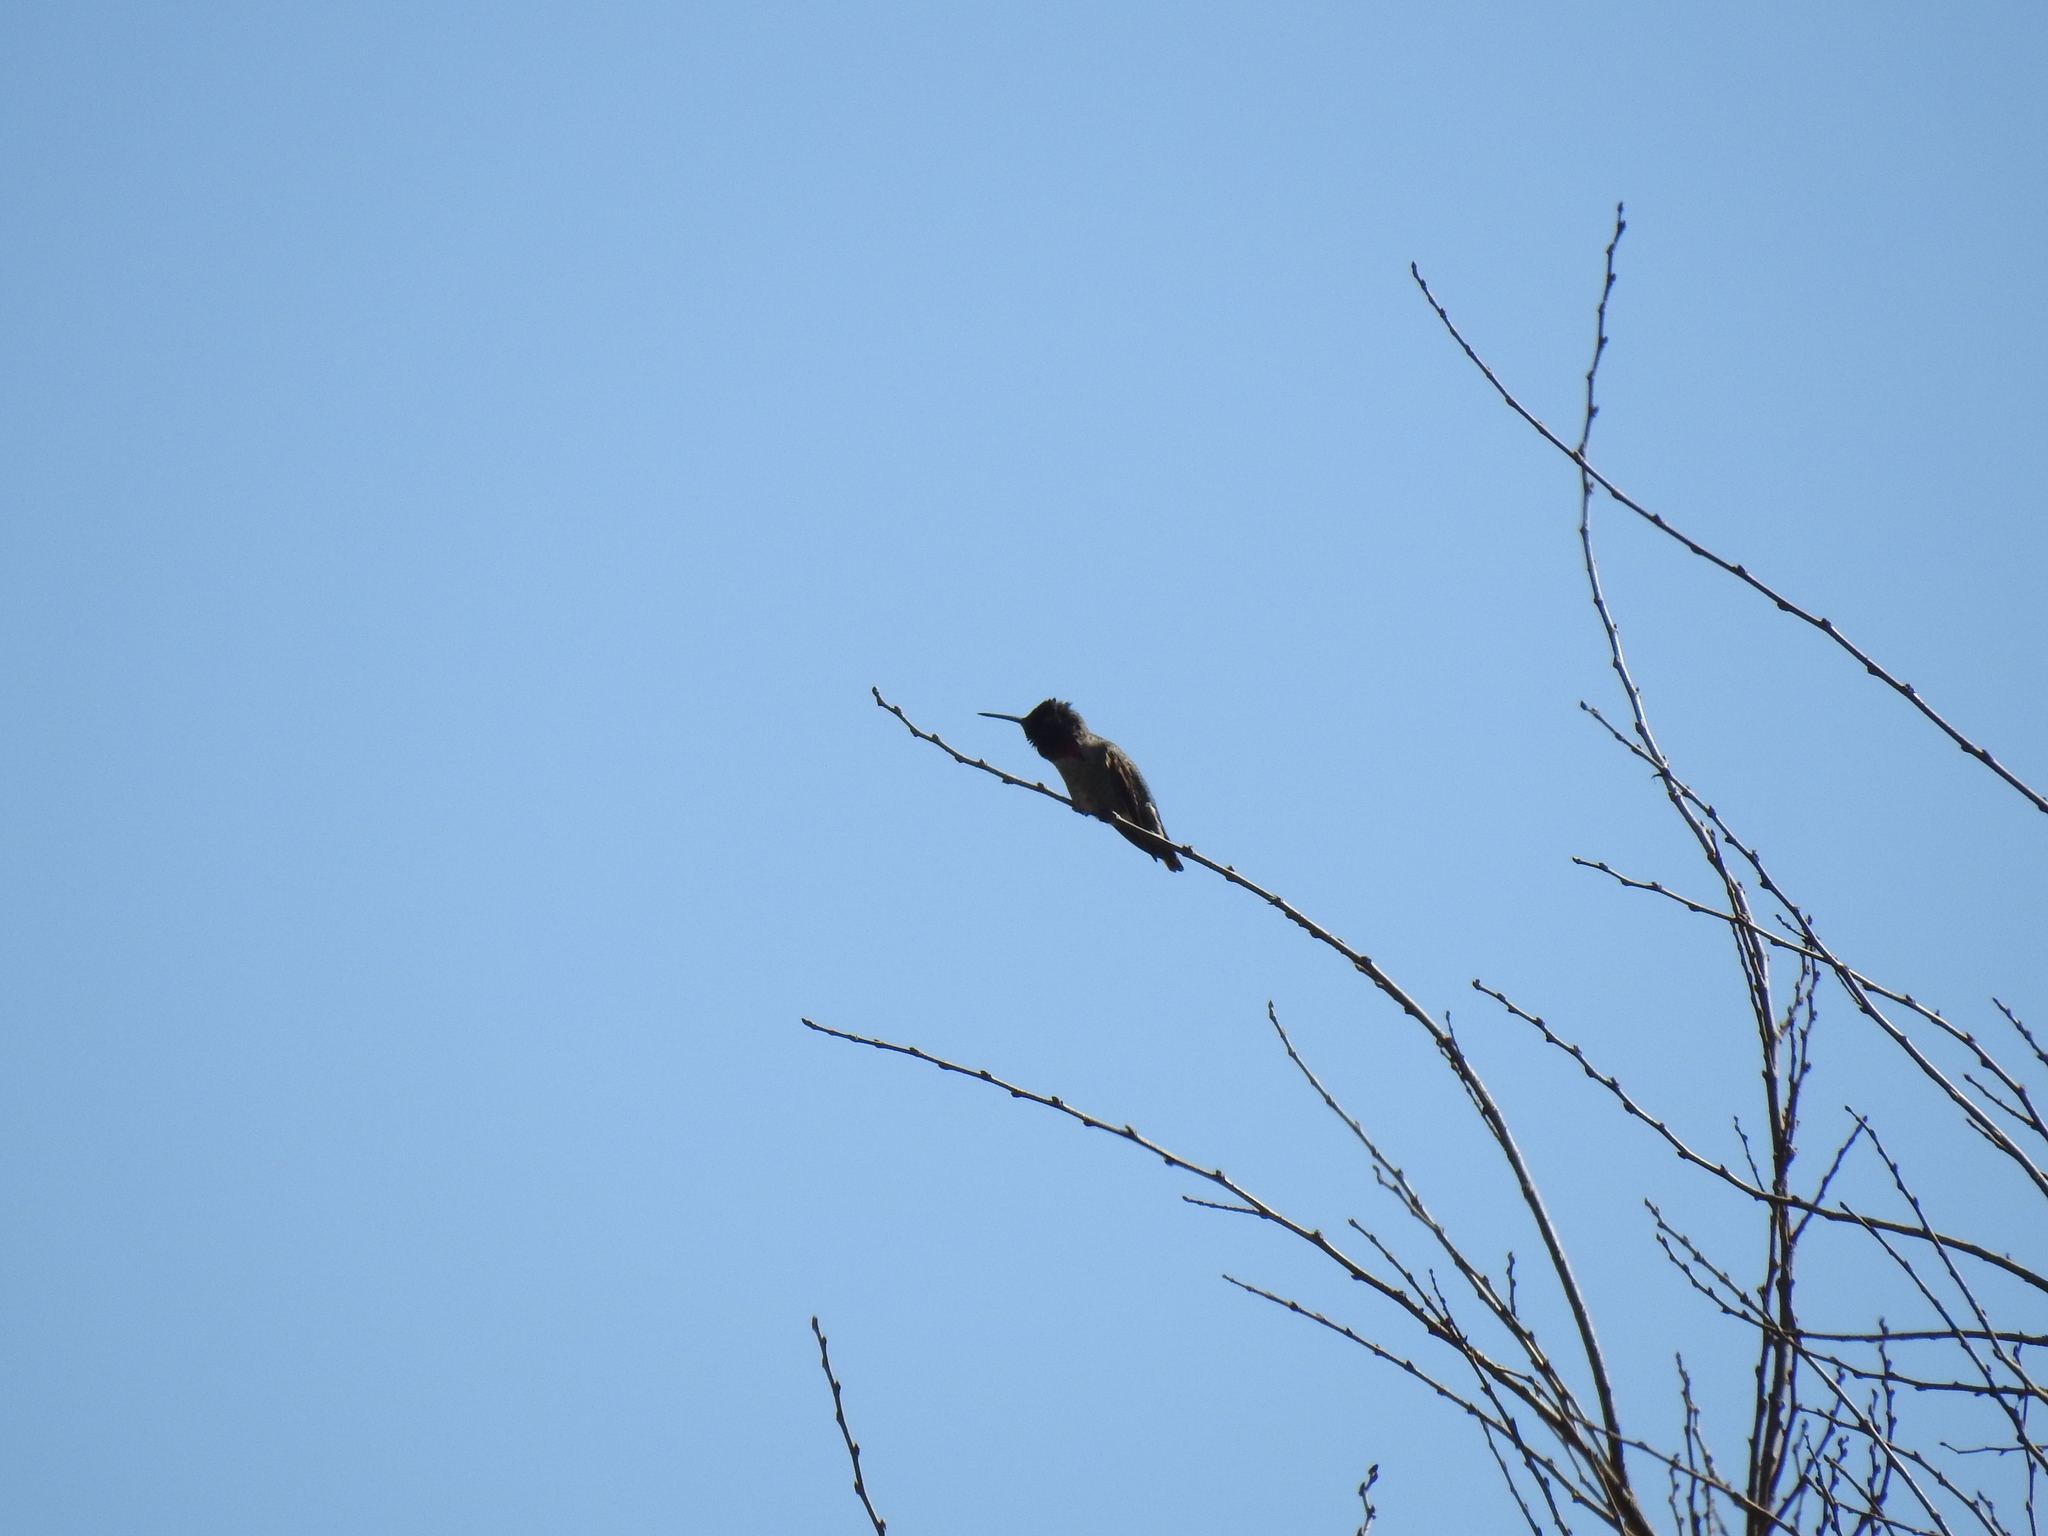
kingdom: Animalia
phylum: Chordata
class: Aves
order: Apodiformes
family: Trochilidae
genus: Calypte
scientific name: Calypte anna
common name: Anna's hummingbird
